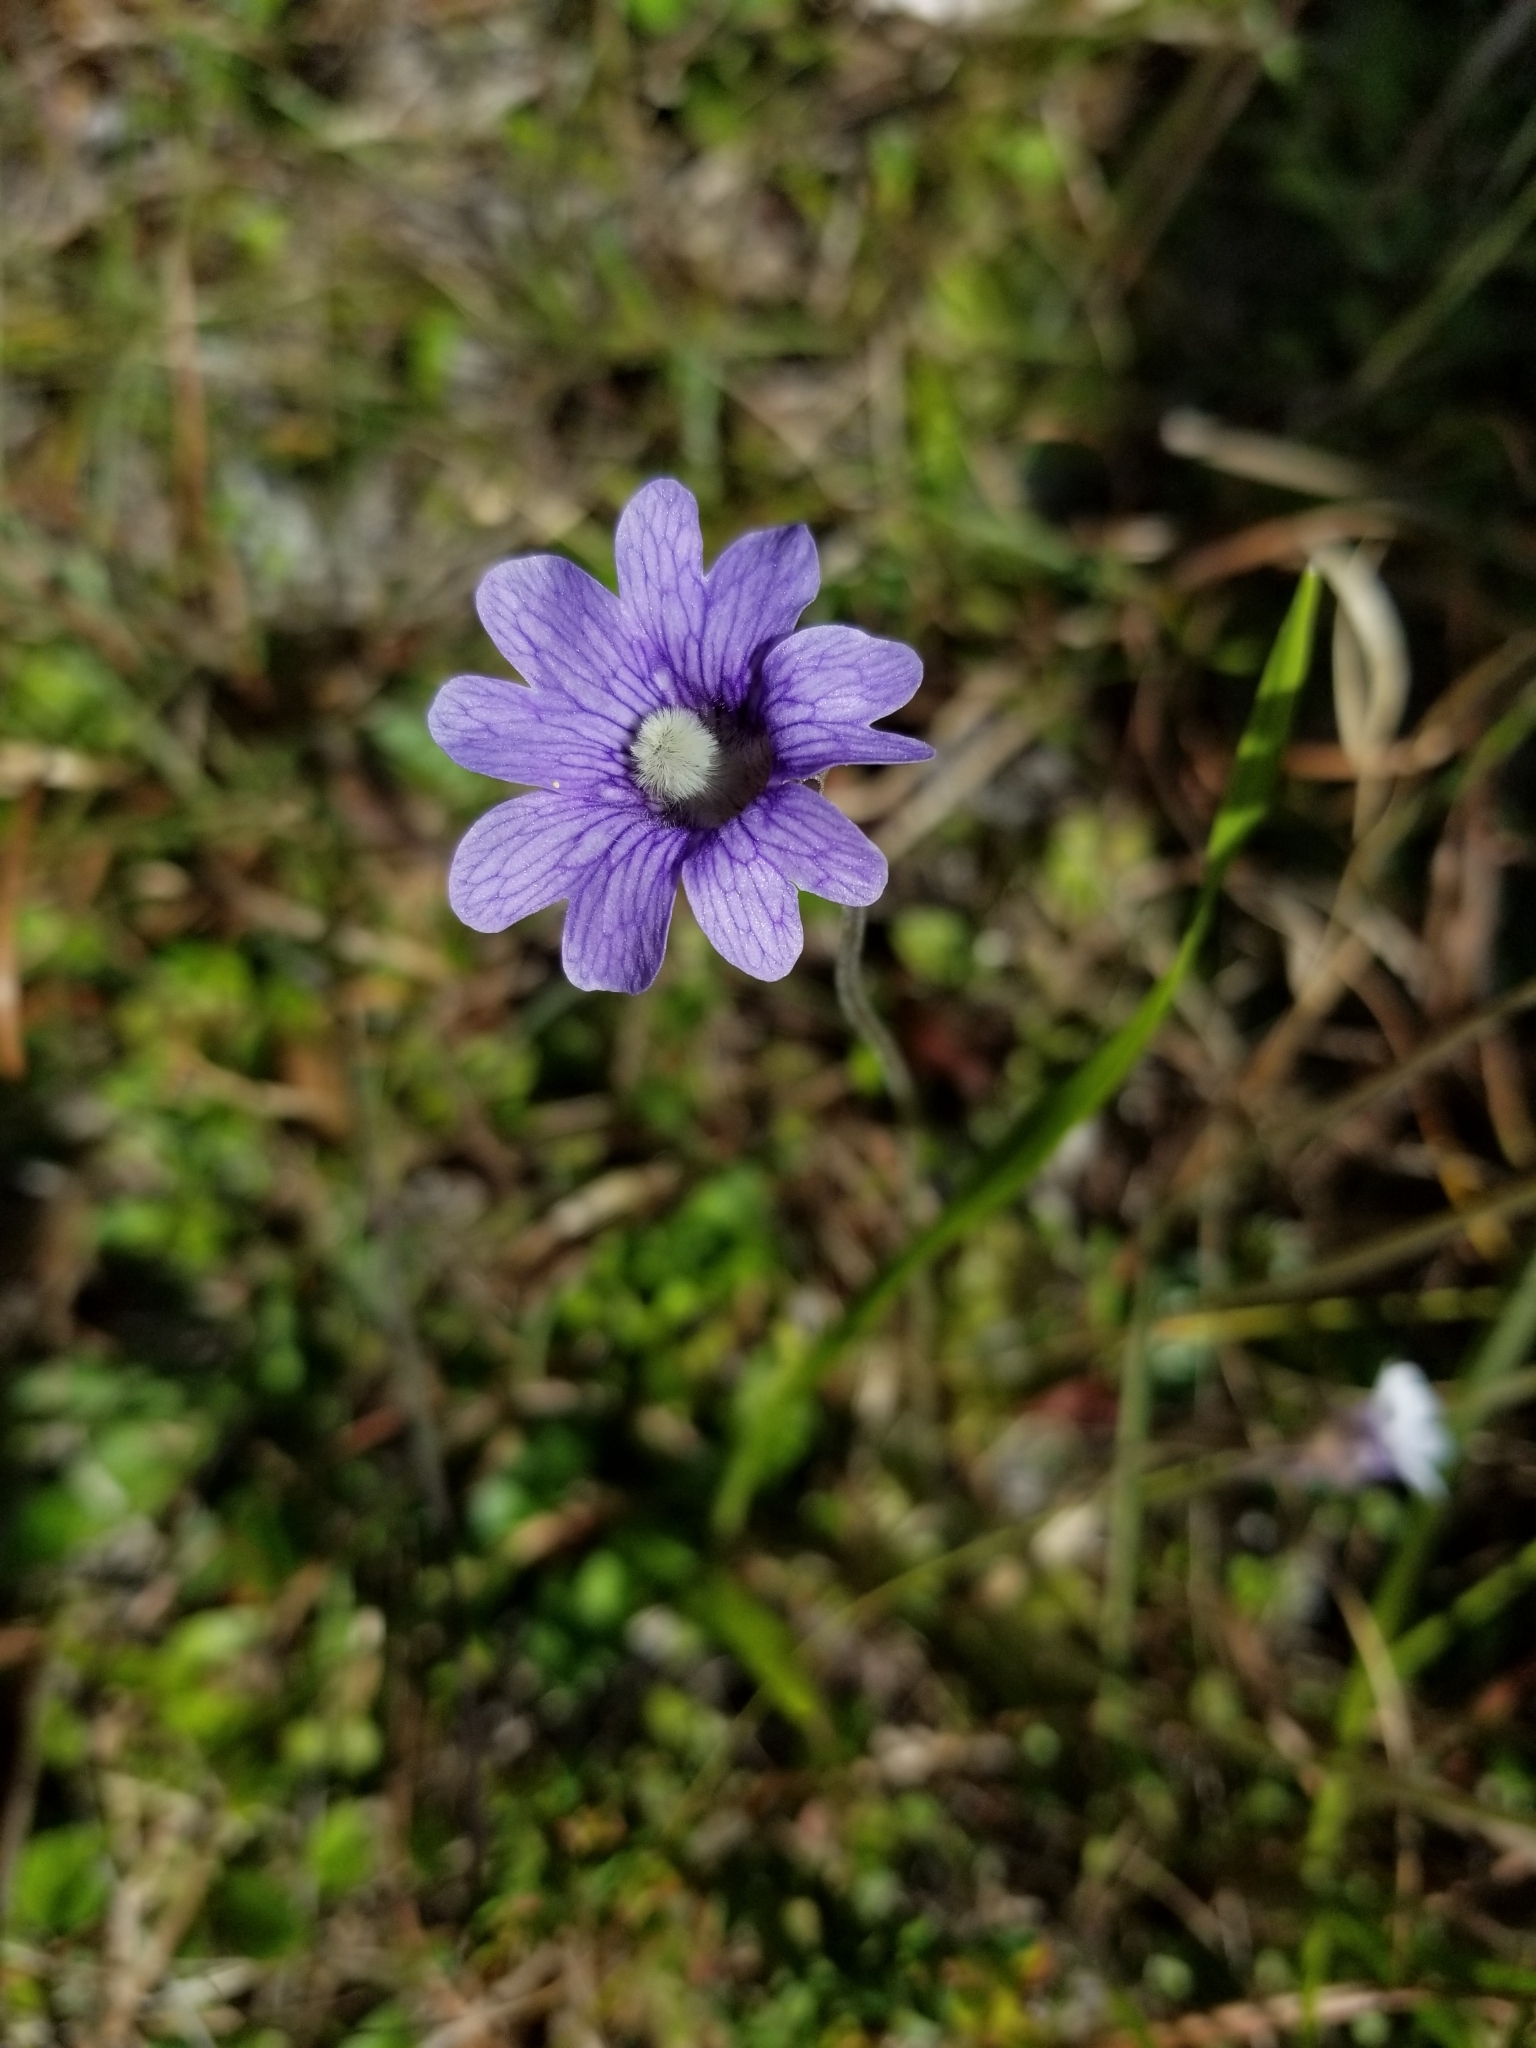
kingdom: Plantae
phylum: Tracheophyta
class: Magnoliopsida
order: Lamiales
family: Lentibulariaceae
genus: Pinguicula
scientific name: Pinguicula caerulea
